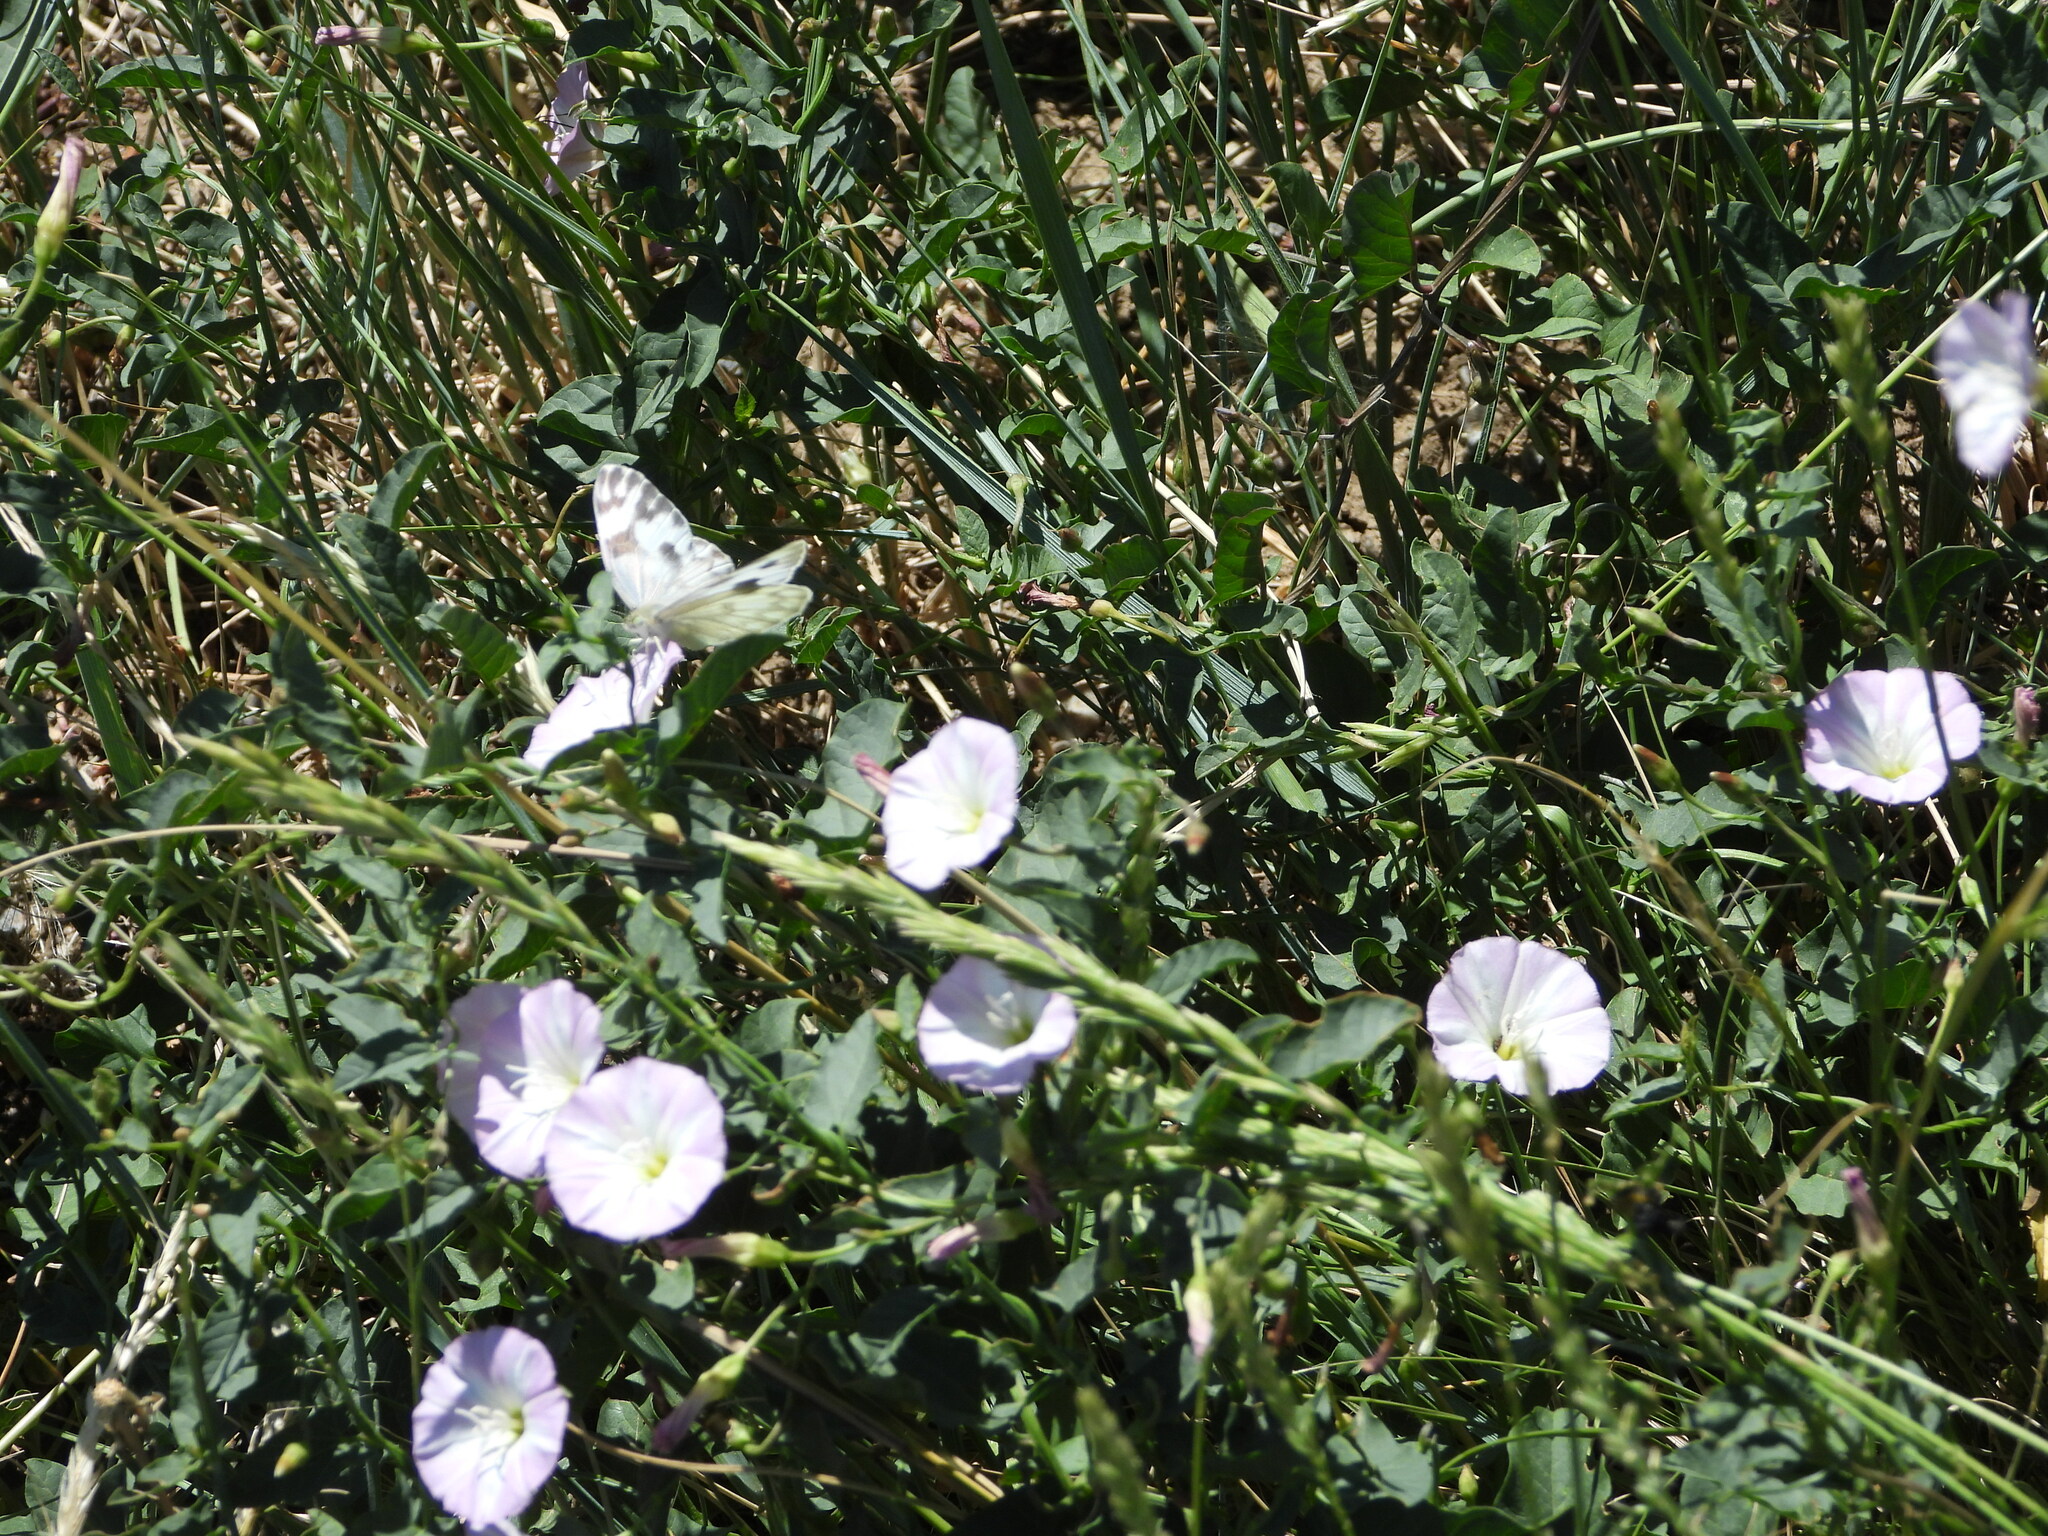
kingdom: Plantae
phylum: Tracheophyta
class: Magnoliopsida
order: Solanales
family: Convolvulaceae
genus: Convolvulus
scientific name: Convolvulus arvensis
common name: Field bindweed
